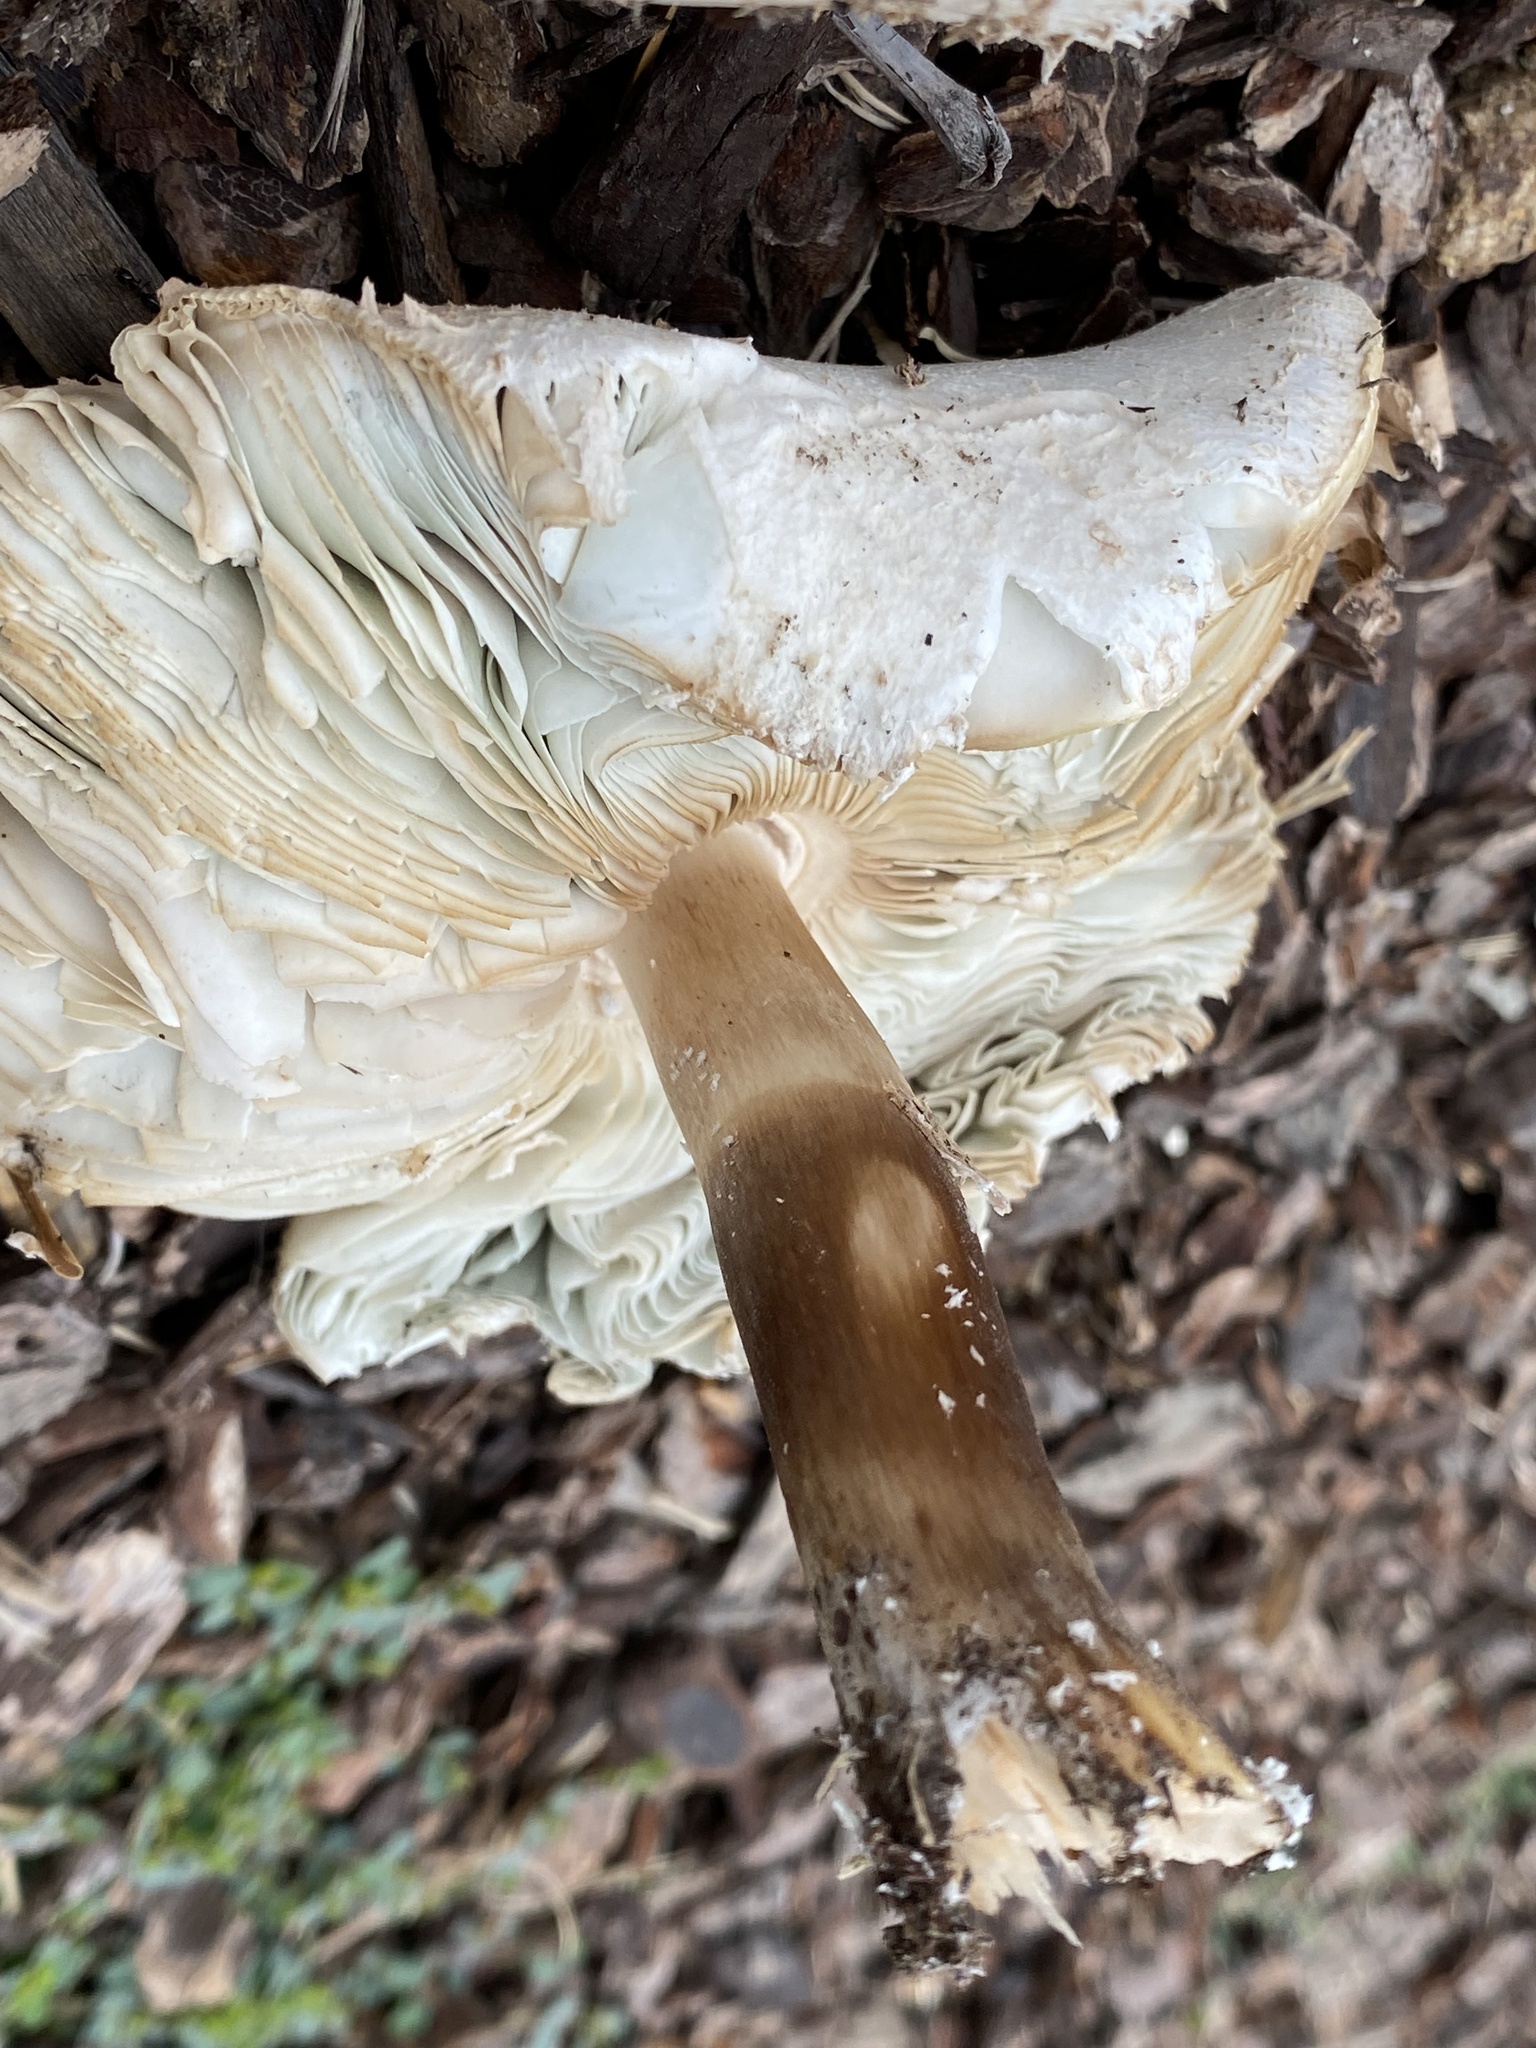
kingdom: Fungi
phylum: Basidiomycota
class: Agaricomycetes
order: Agaricales
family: Agaricaceae
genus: Chlorophyllum
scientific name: Chlorophyllum molybdites
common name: False parasol
